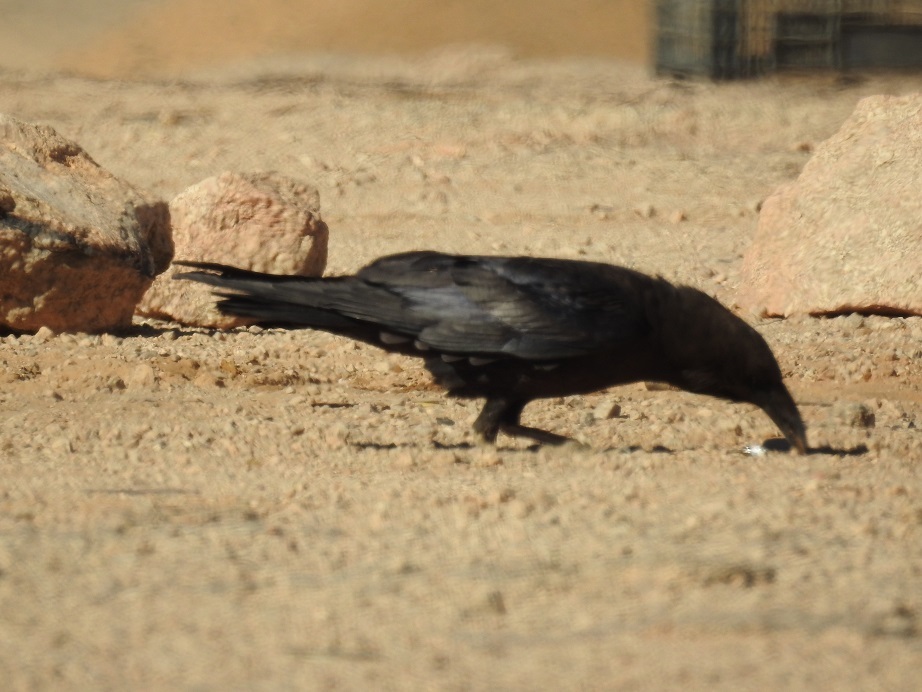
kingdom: Animalia
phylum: Chordata
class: Aves
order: Passeriformes
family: Corvidae
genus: Corvus
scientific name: Corvus ruficollis
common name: Brown-necked raven
